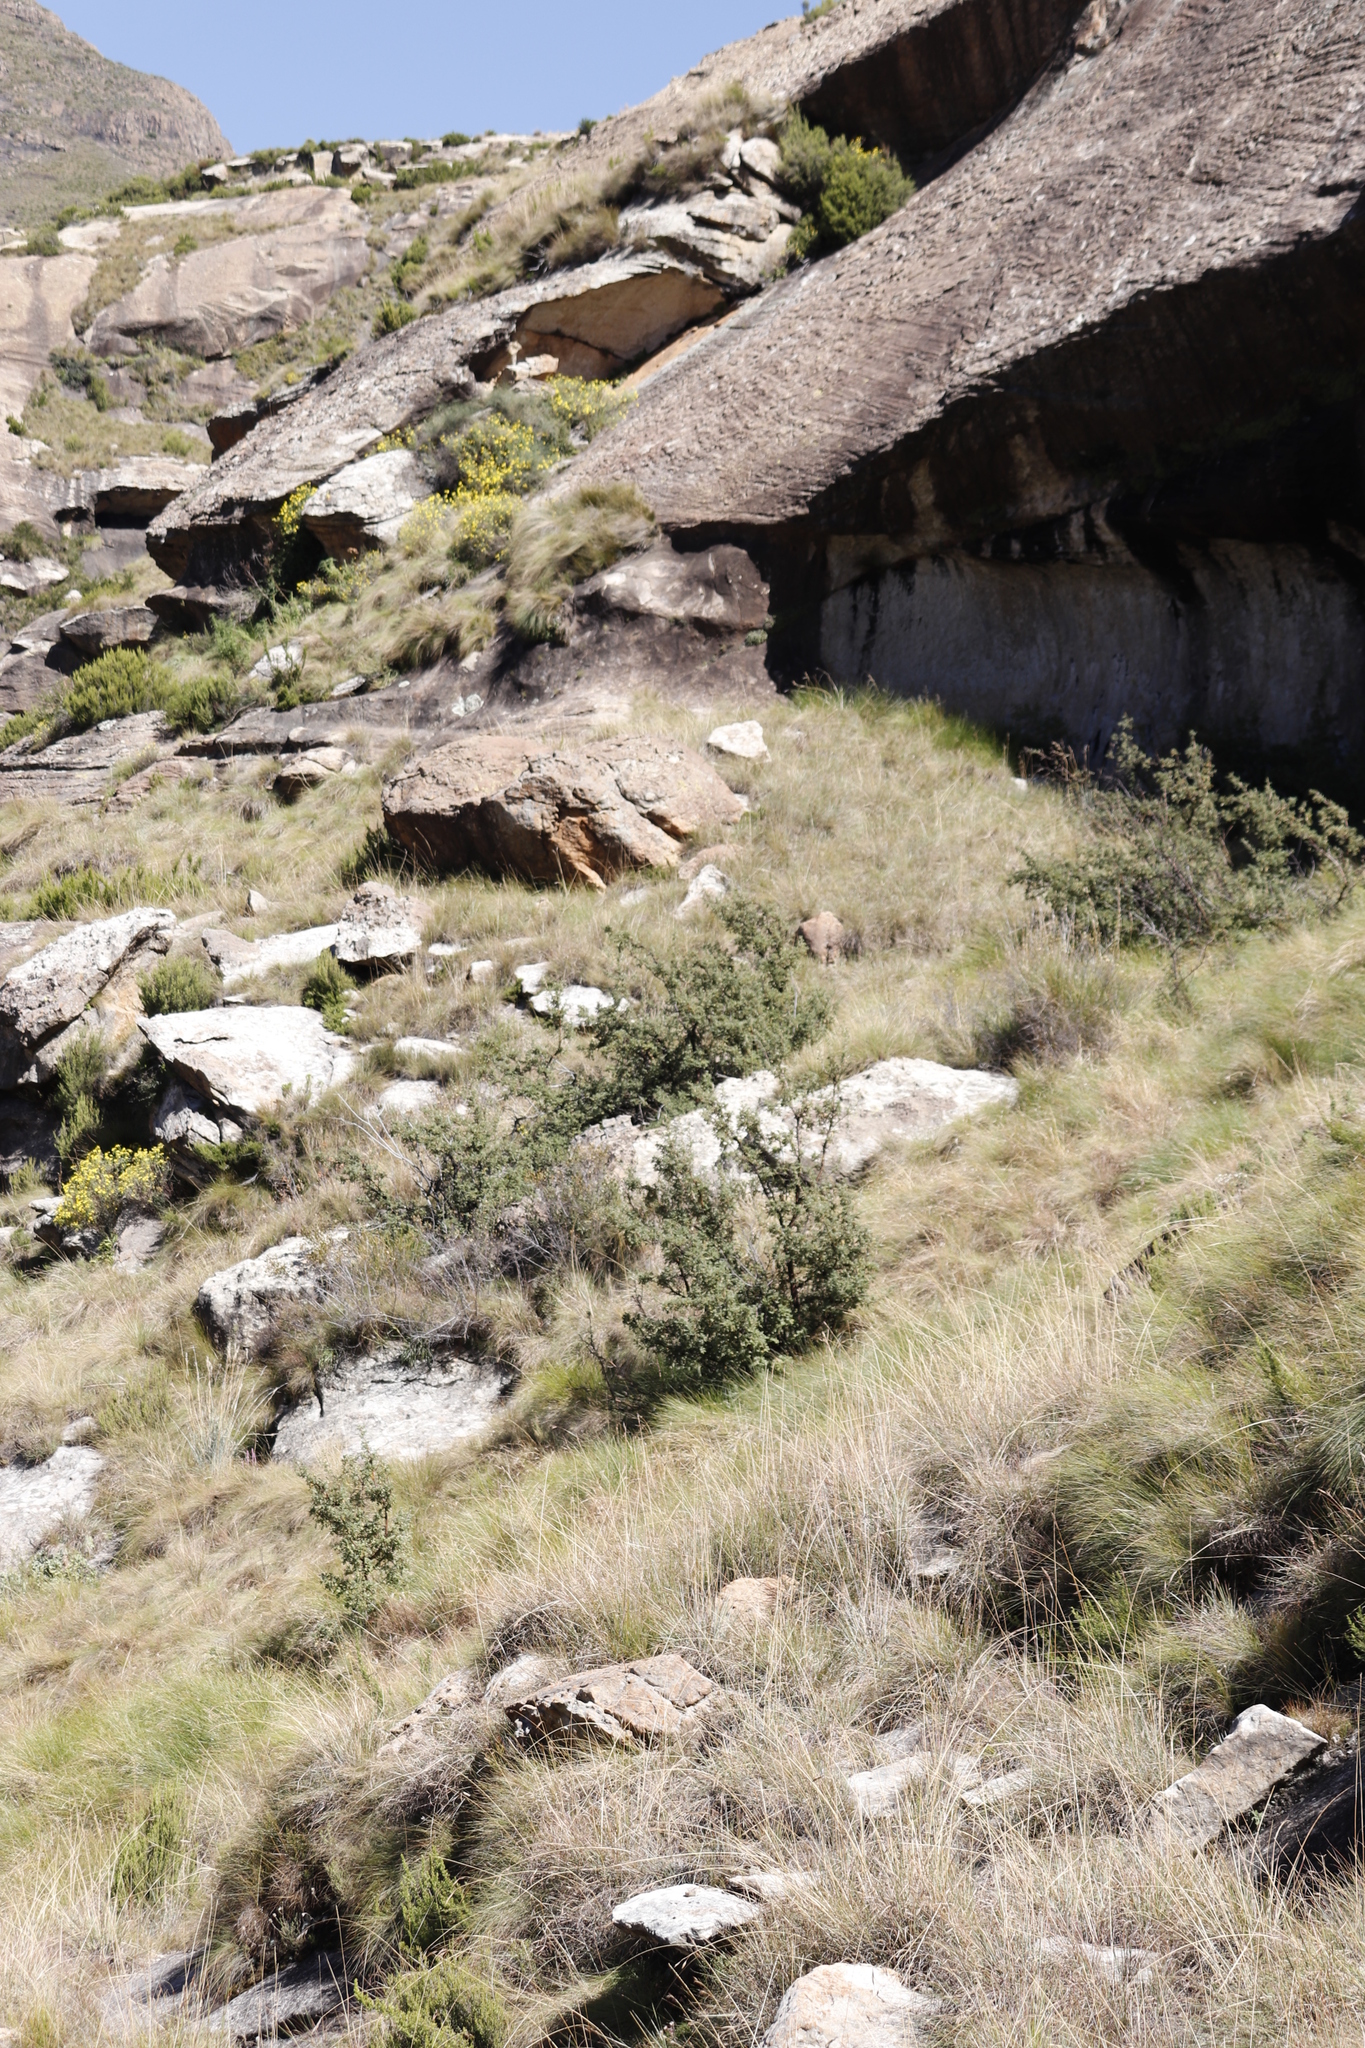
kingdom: Plantae
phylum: Tracheophyta
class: Magnoliopsida
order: Rosales
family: Rosaceae
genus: Leucosidea
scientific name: Leucosidea sericea
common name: Oldwood
